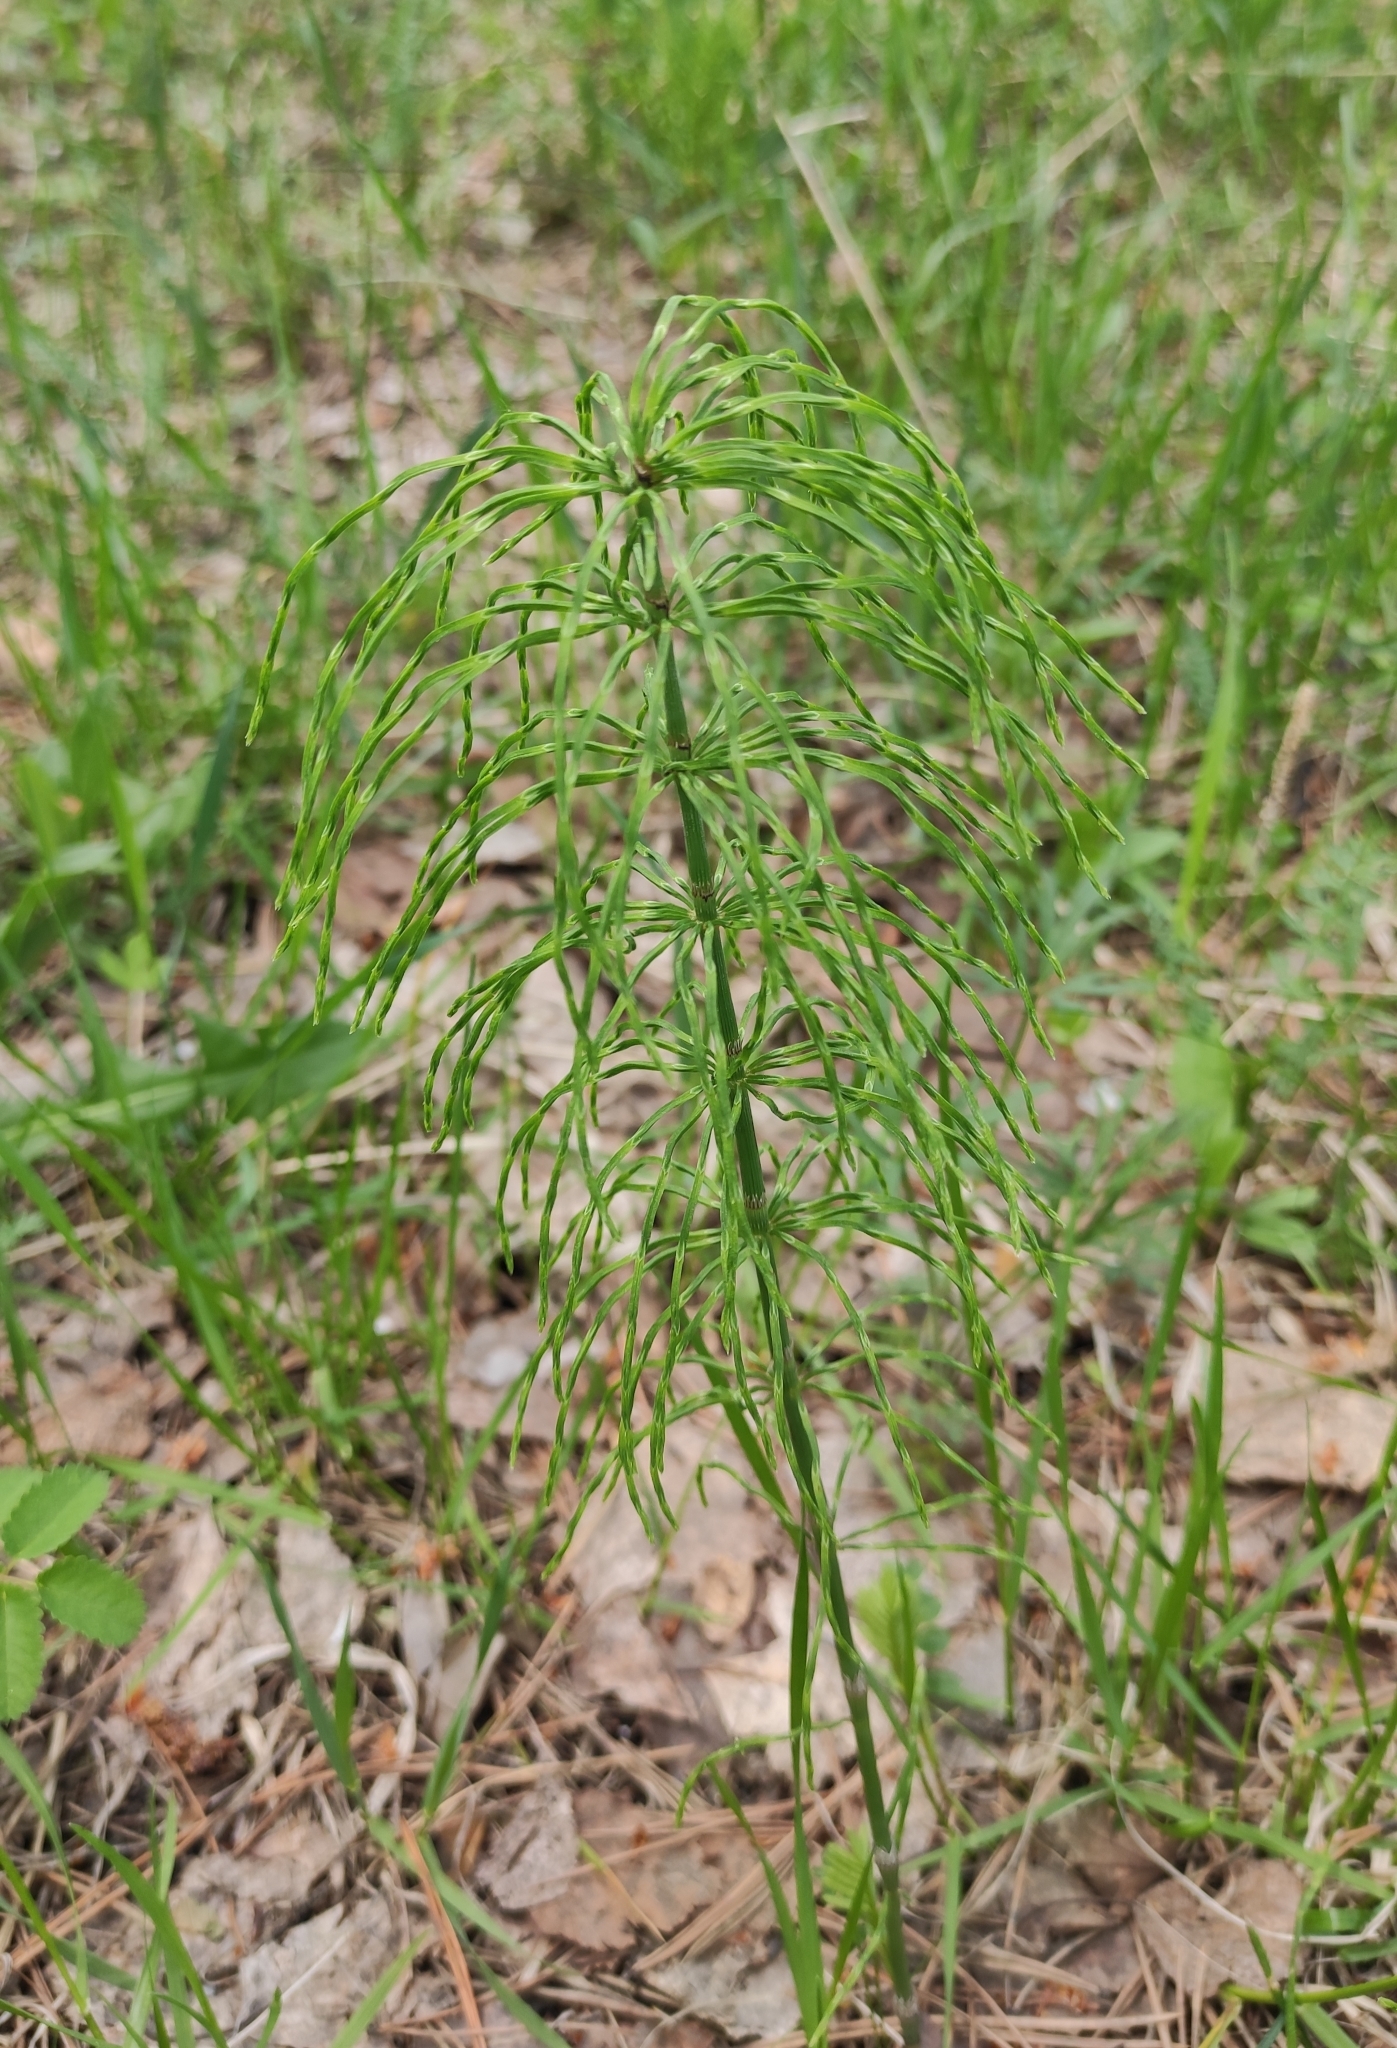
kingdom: Plantae
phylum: Tracheophyta
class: Polypodiopsida
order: Equisetales
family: Equisetaceae
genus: Equisetum
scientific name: Equisetum pratense
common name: Meadow horsetail
